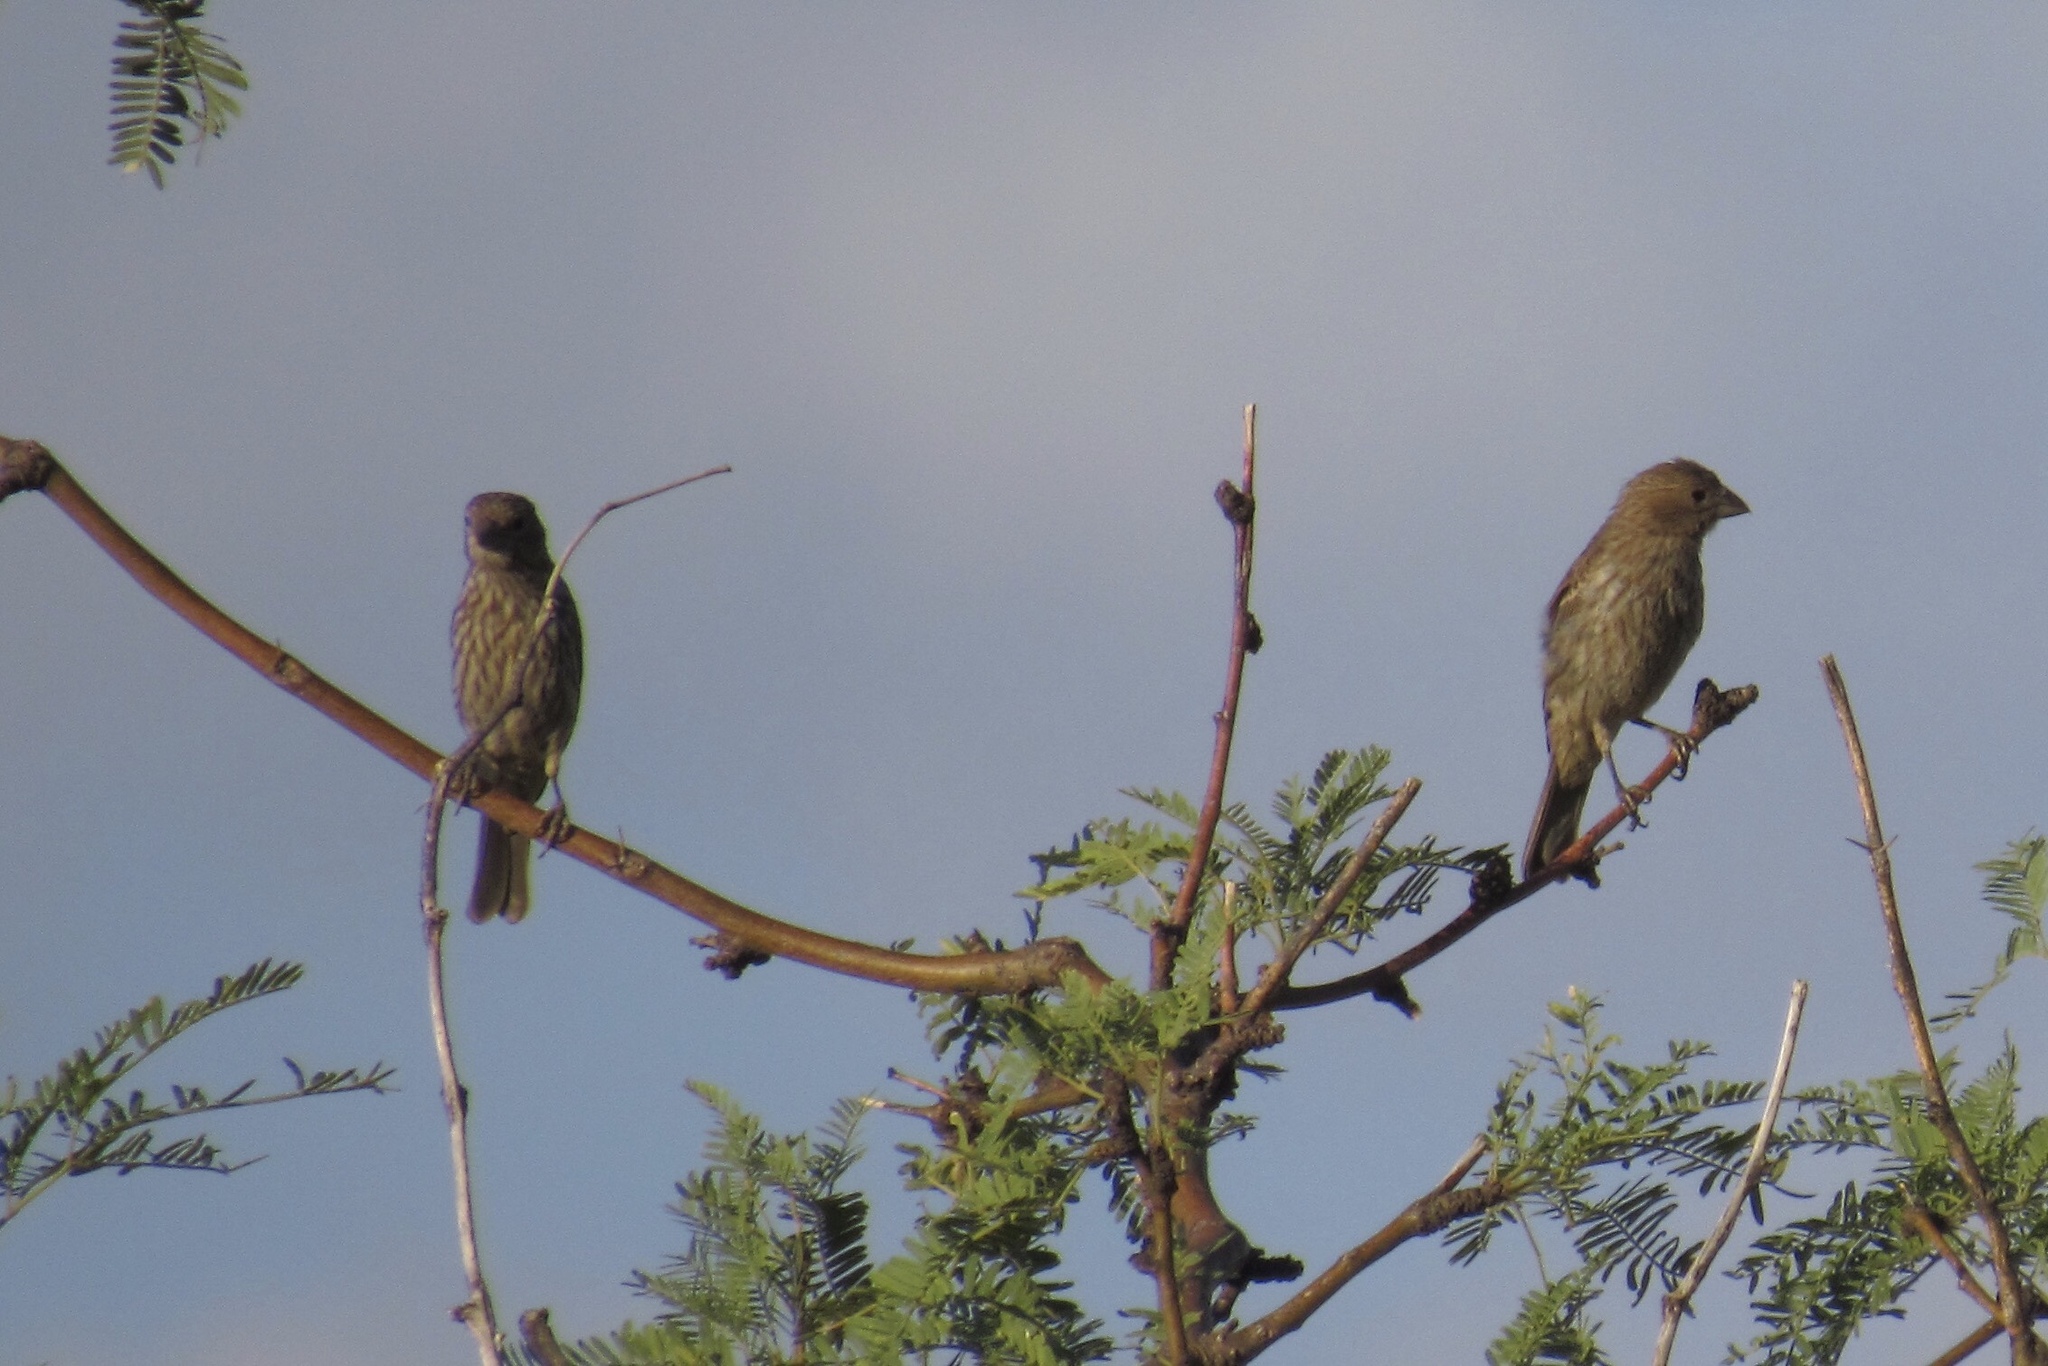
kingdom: Animalia
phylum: Chordata
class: Aves
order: Passeriformes
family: Fringillidae
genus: Haemorhous
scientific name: Haemorhous mexicanus
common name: House finch
